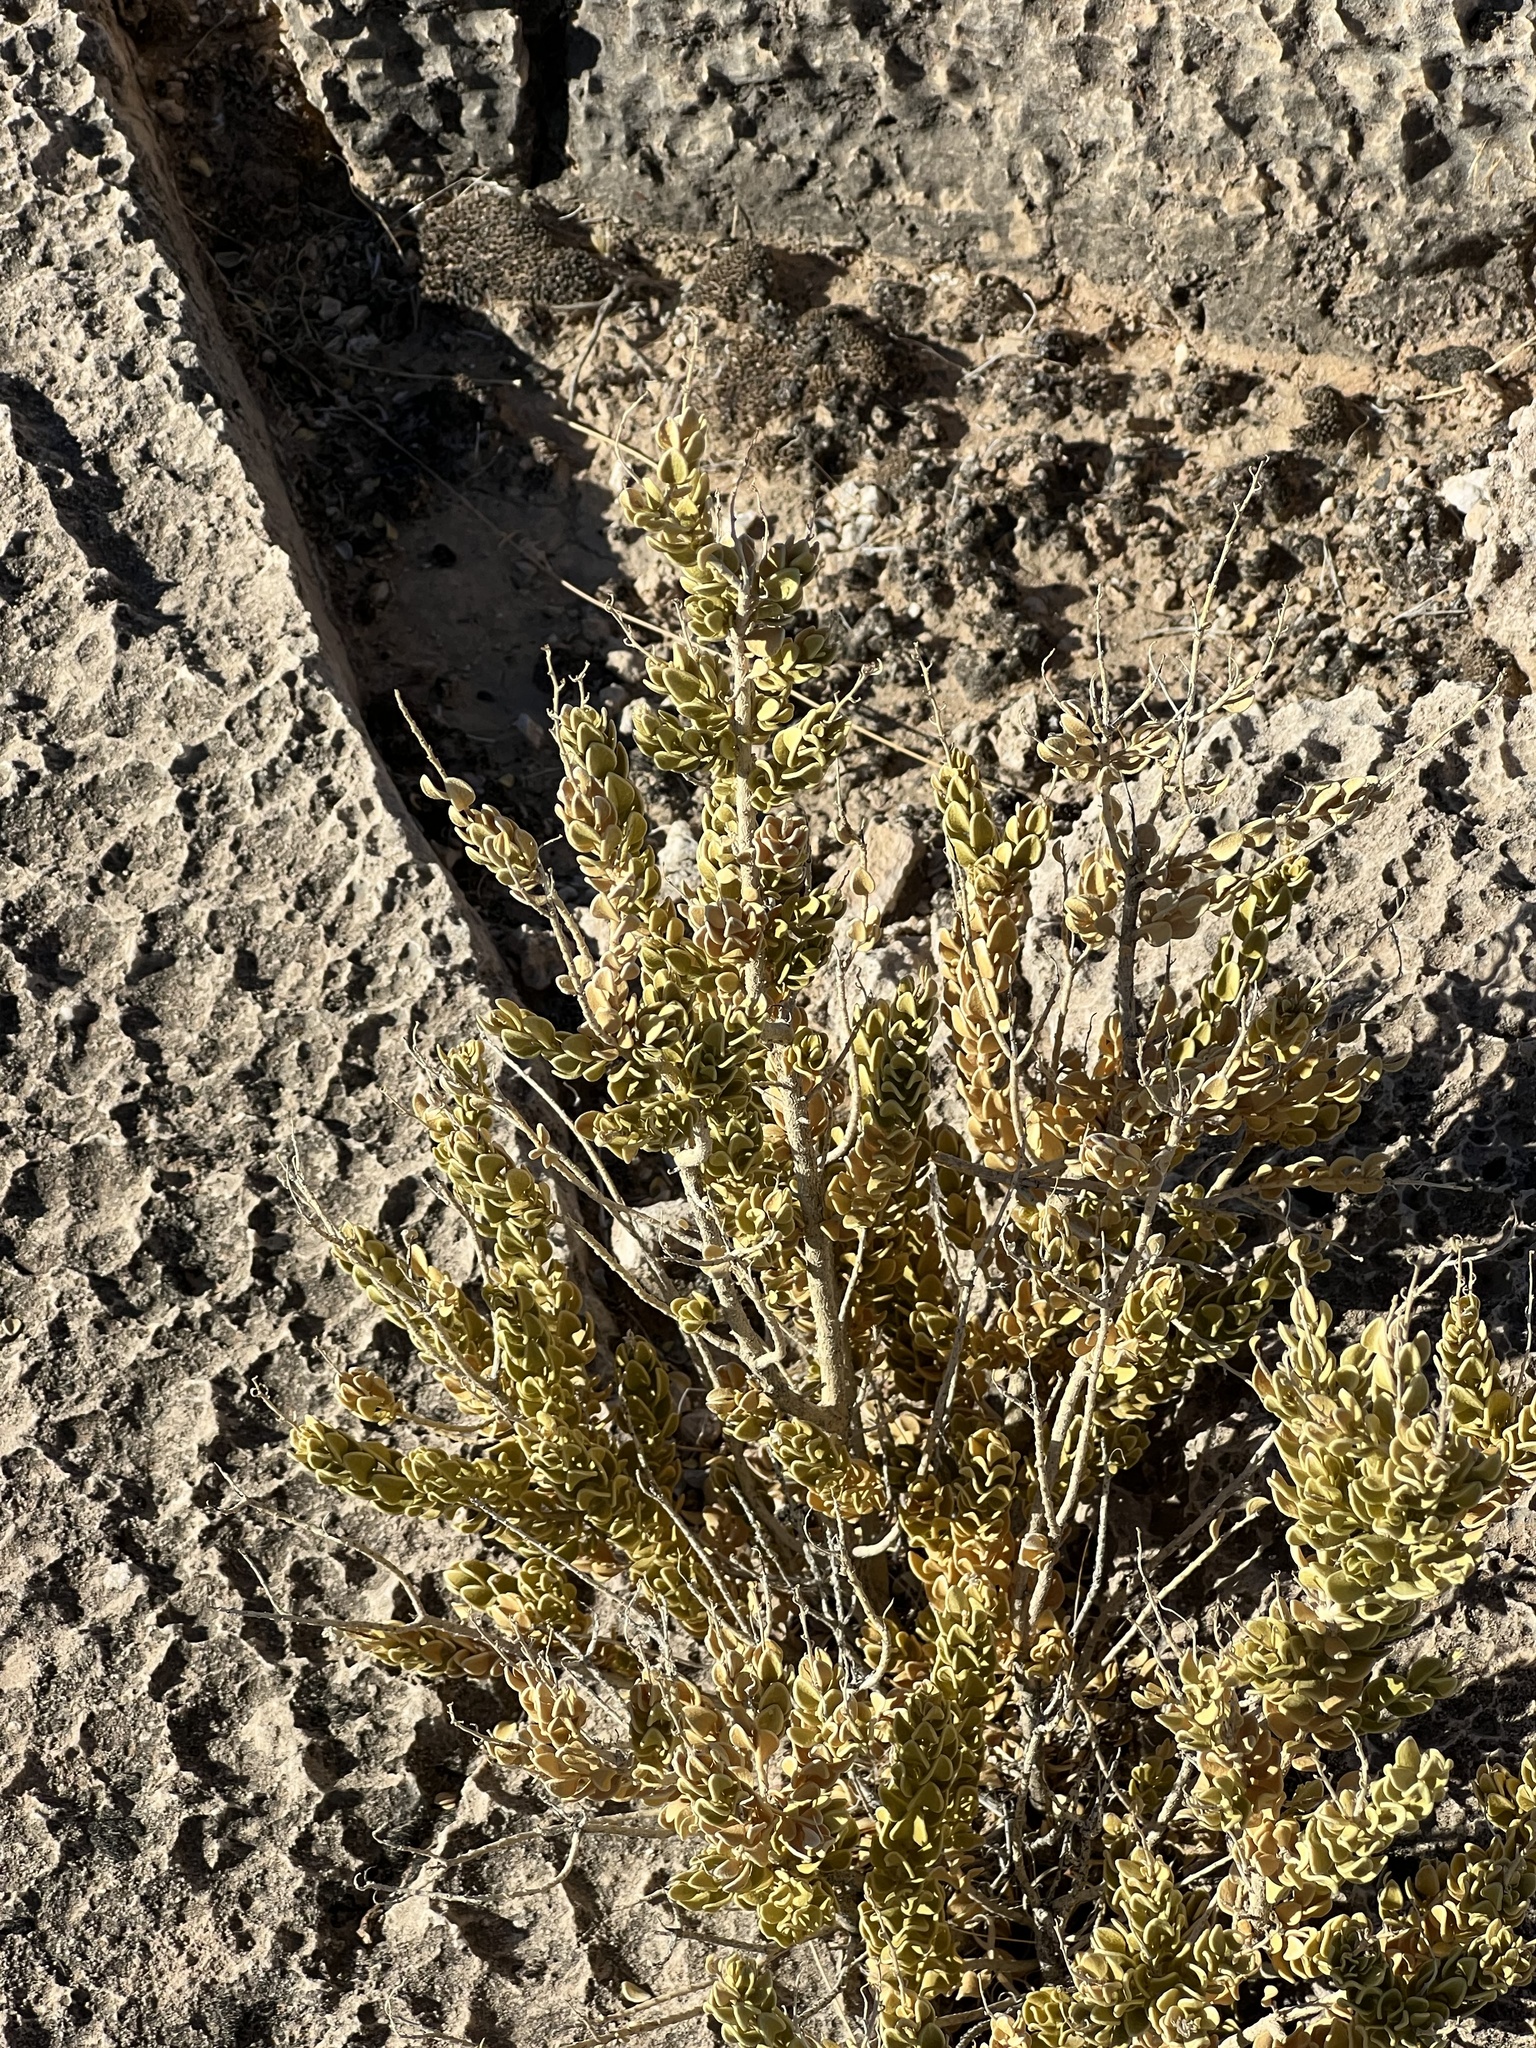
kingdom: Plantae
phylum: Tracheophyta
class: Magnoliopsida
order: Celastrales
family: Celastraceae
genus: Mortonia
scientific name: Mortonia utahensis
